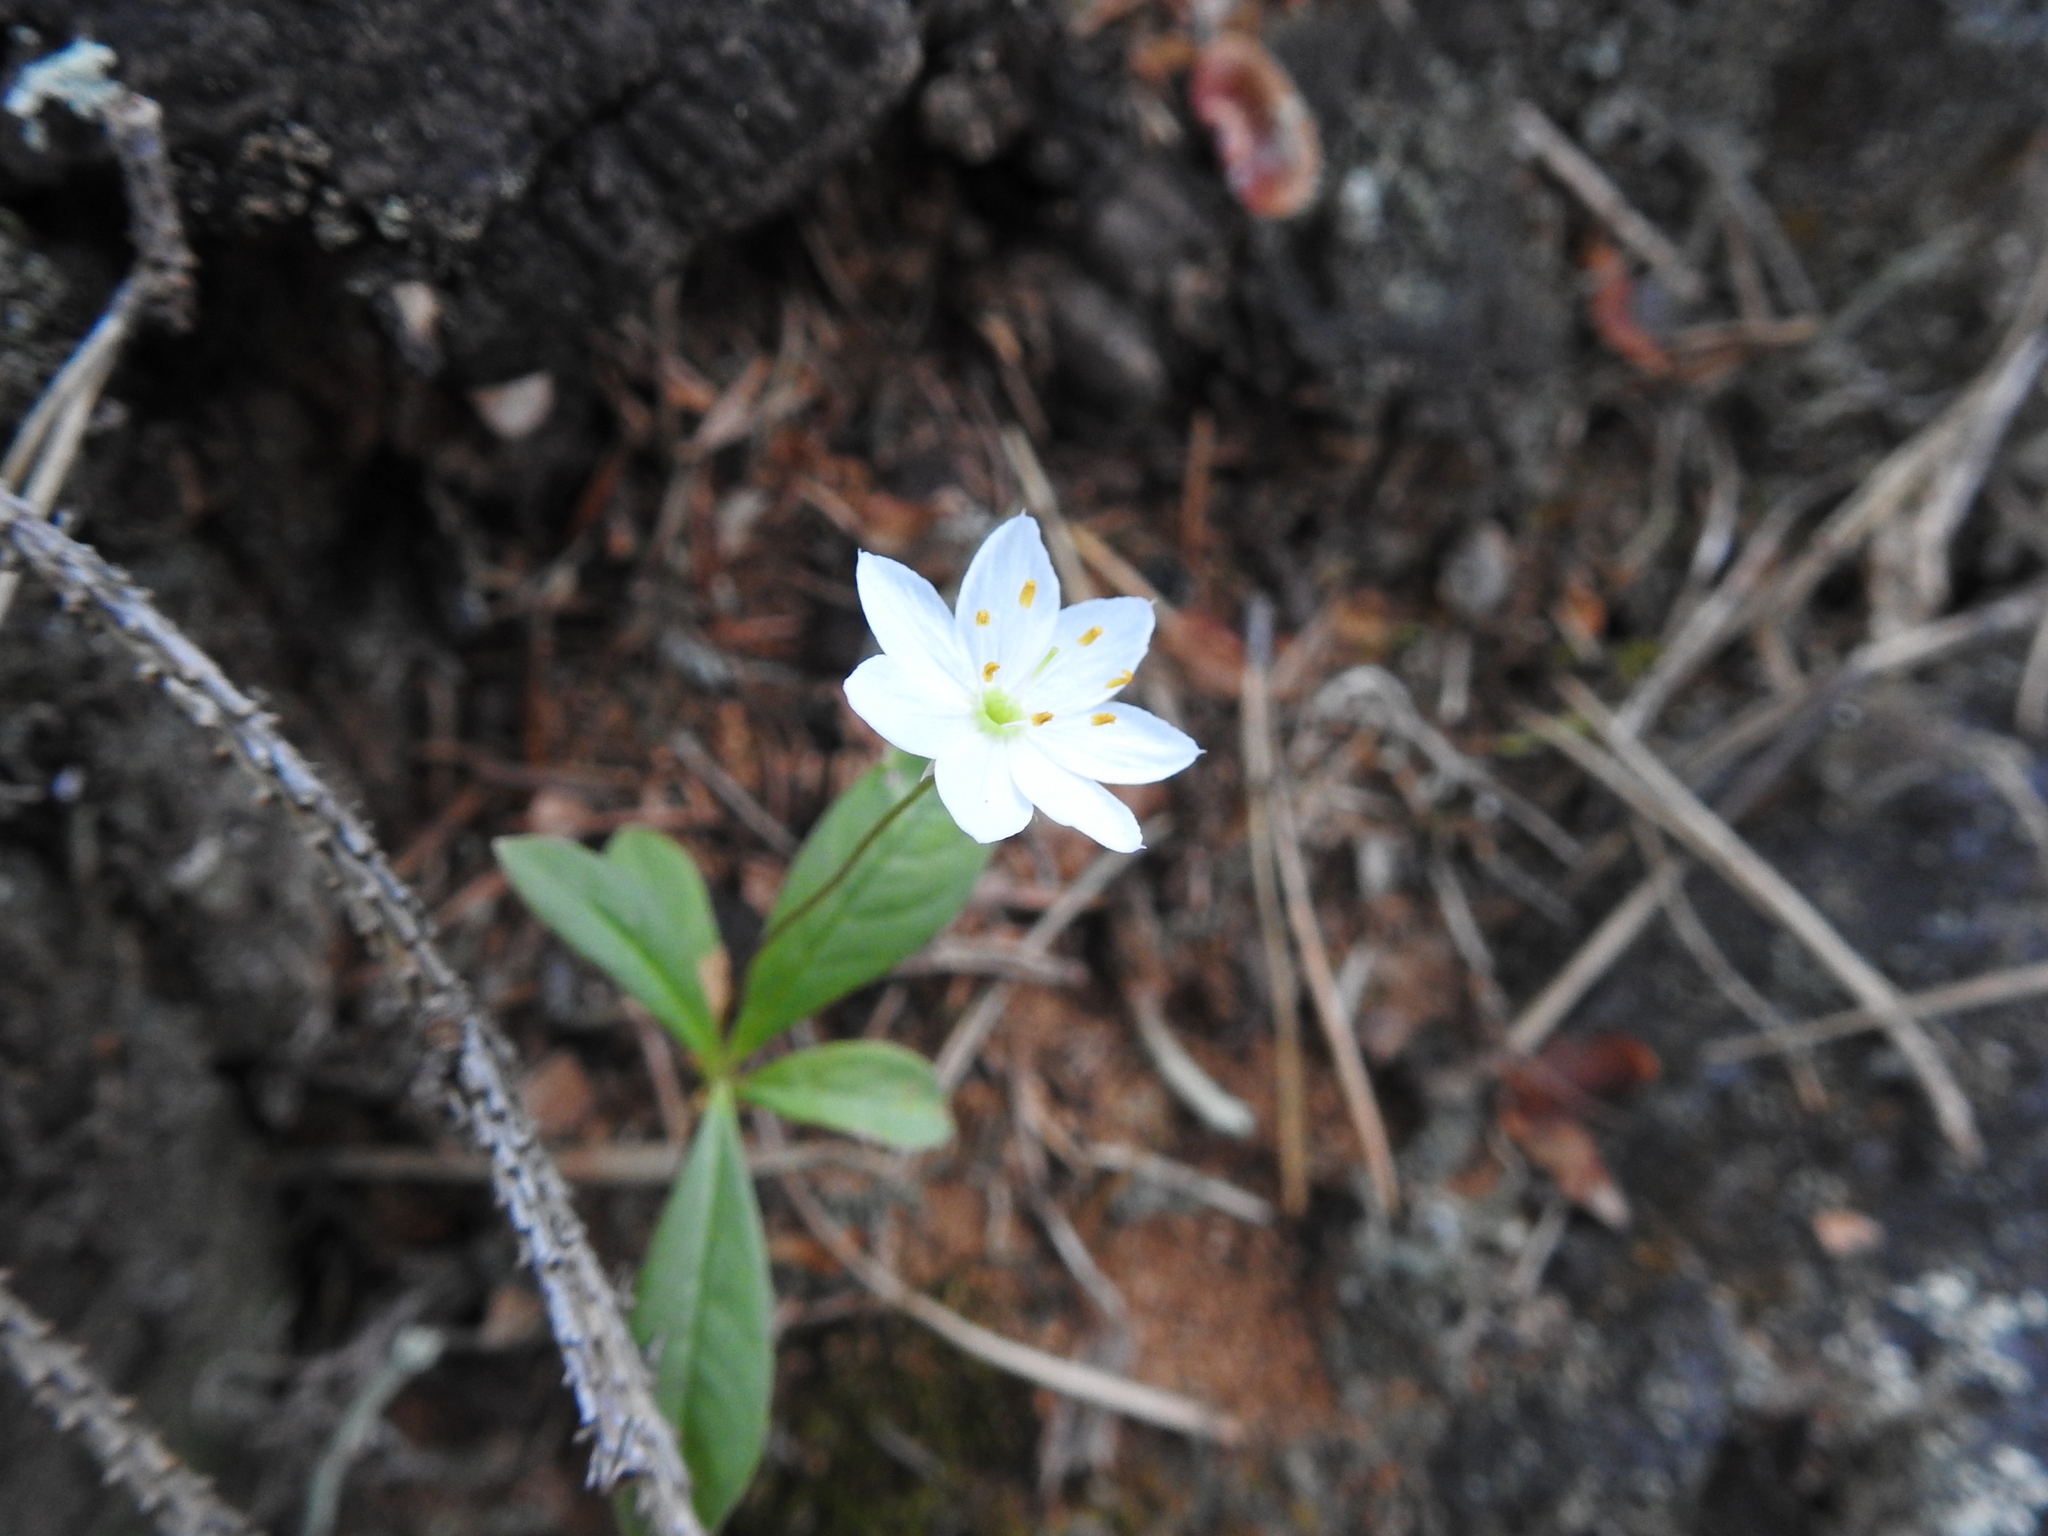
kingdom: Plantae
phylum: Tracheophyta
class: Magnoliopsida
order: Ericales
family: Primulaceae
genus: Lysimachia
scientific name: Lysimachia europaea
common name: Arctic starflower
